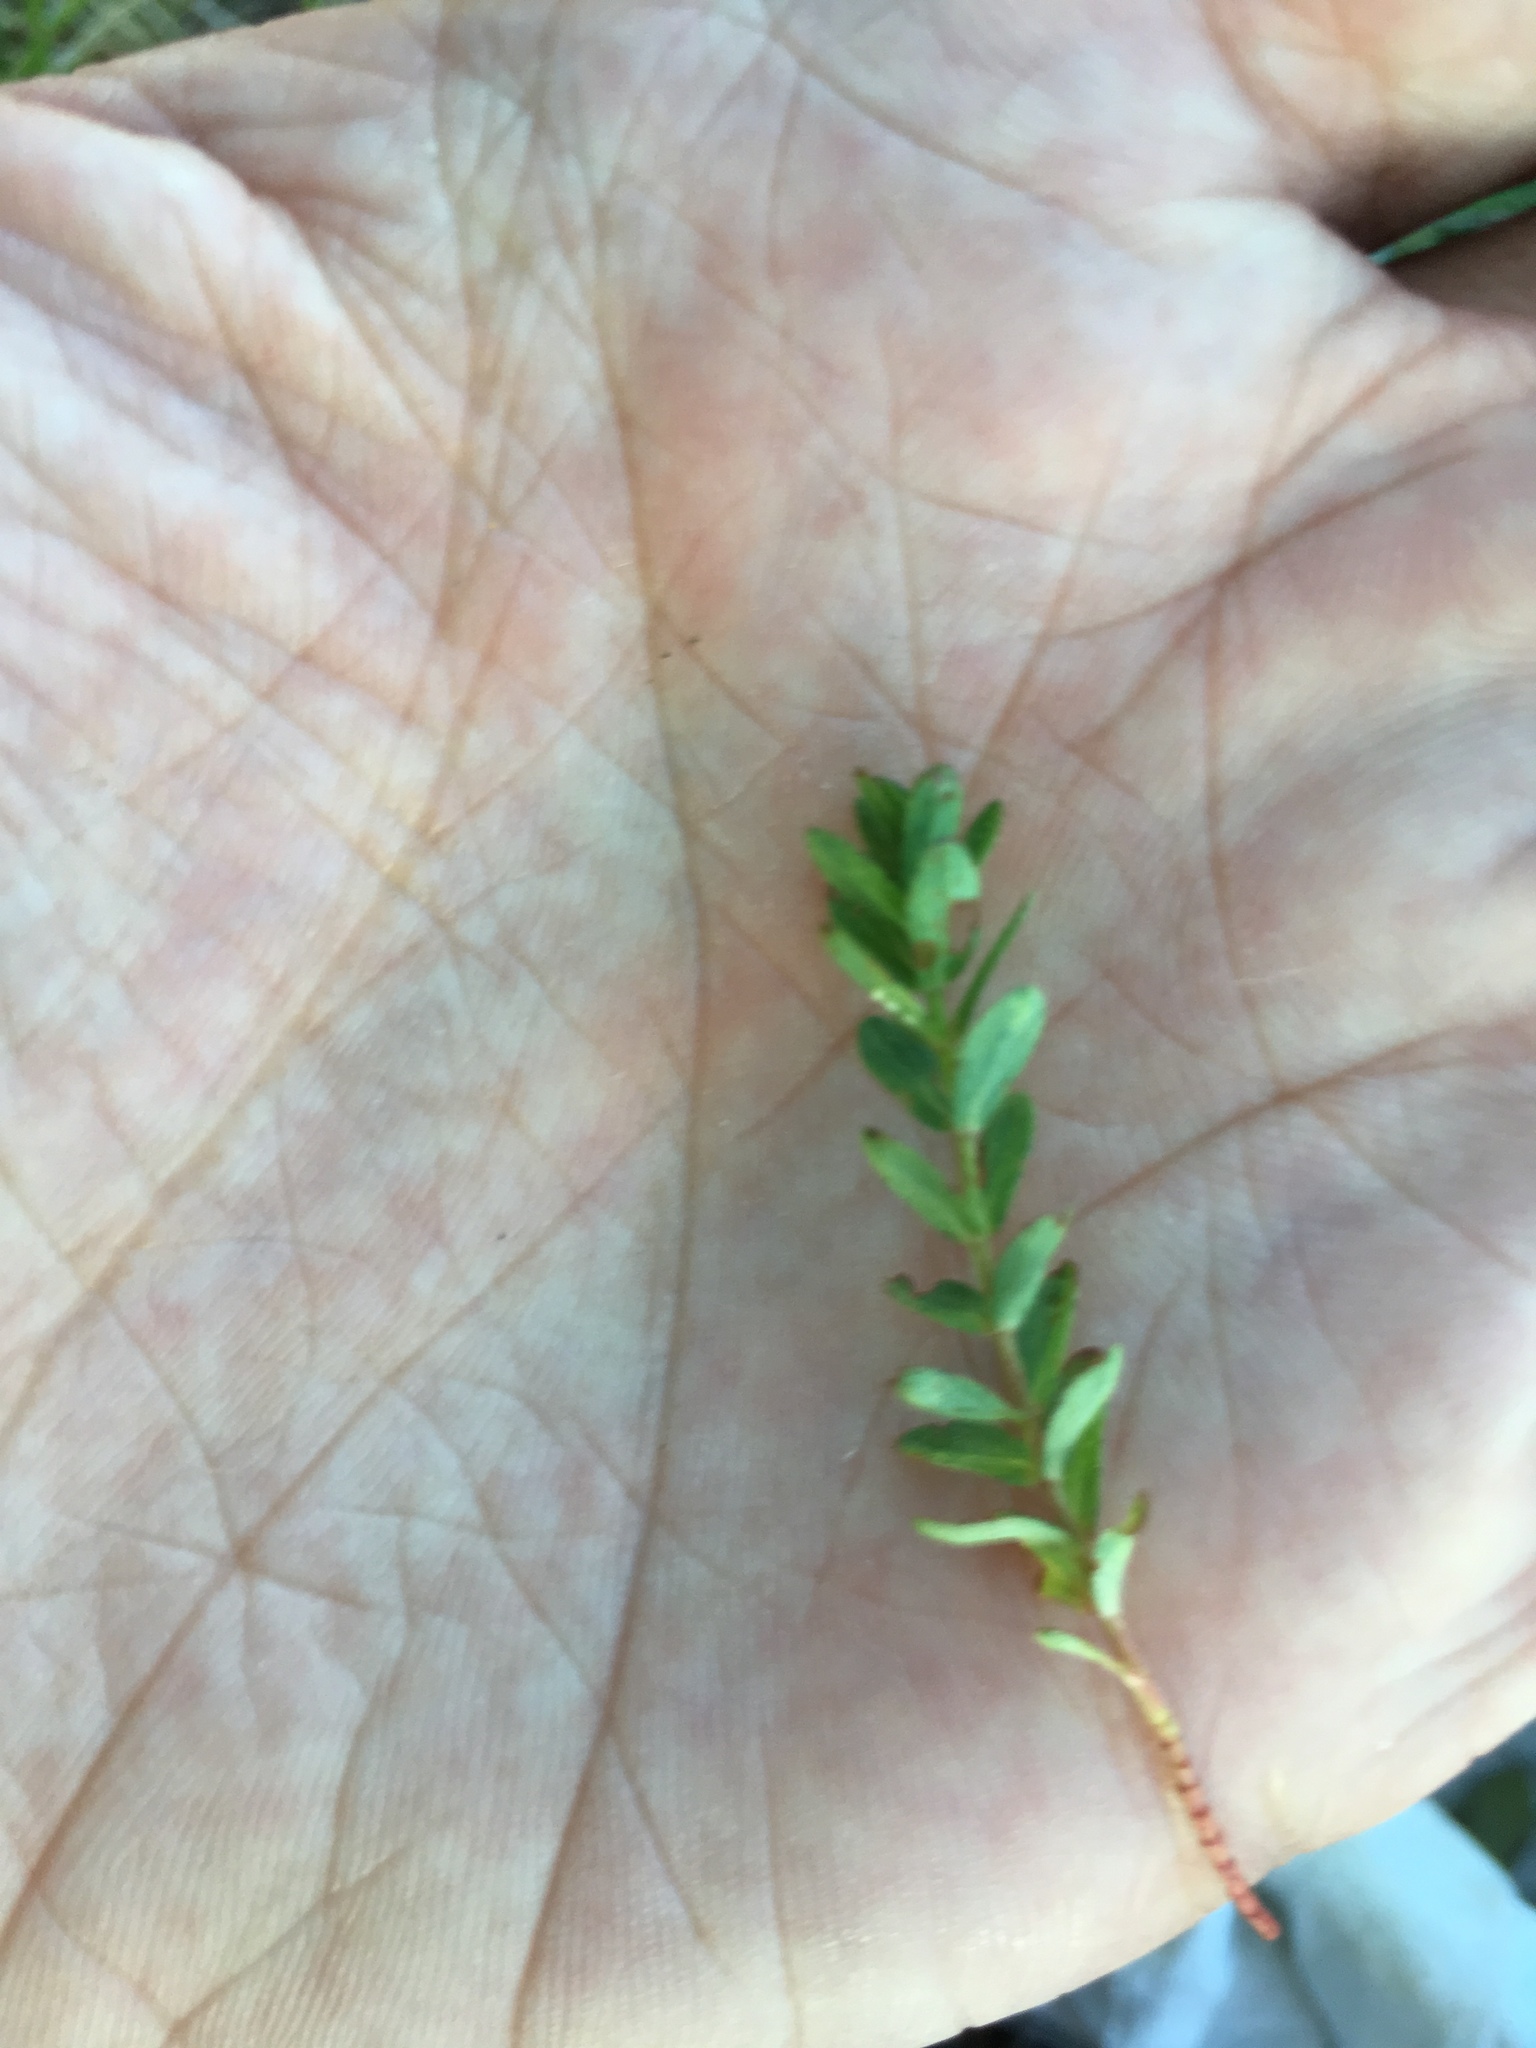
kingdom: Plantae
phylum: Tracheophyta
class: Magnoliopsida
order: Malpighiales
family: Hypericaceae
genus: Hypericum
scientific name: Hypericum perforatum
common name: Common st. johnswort
